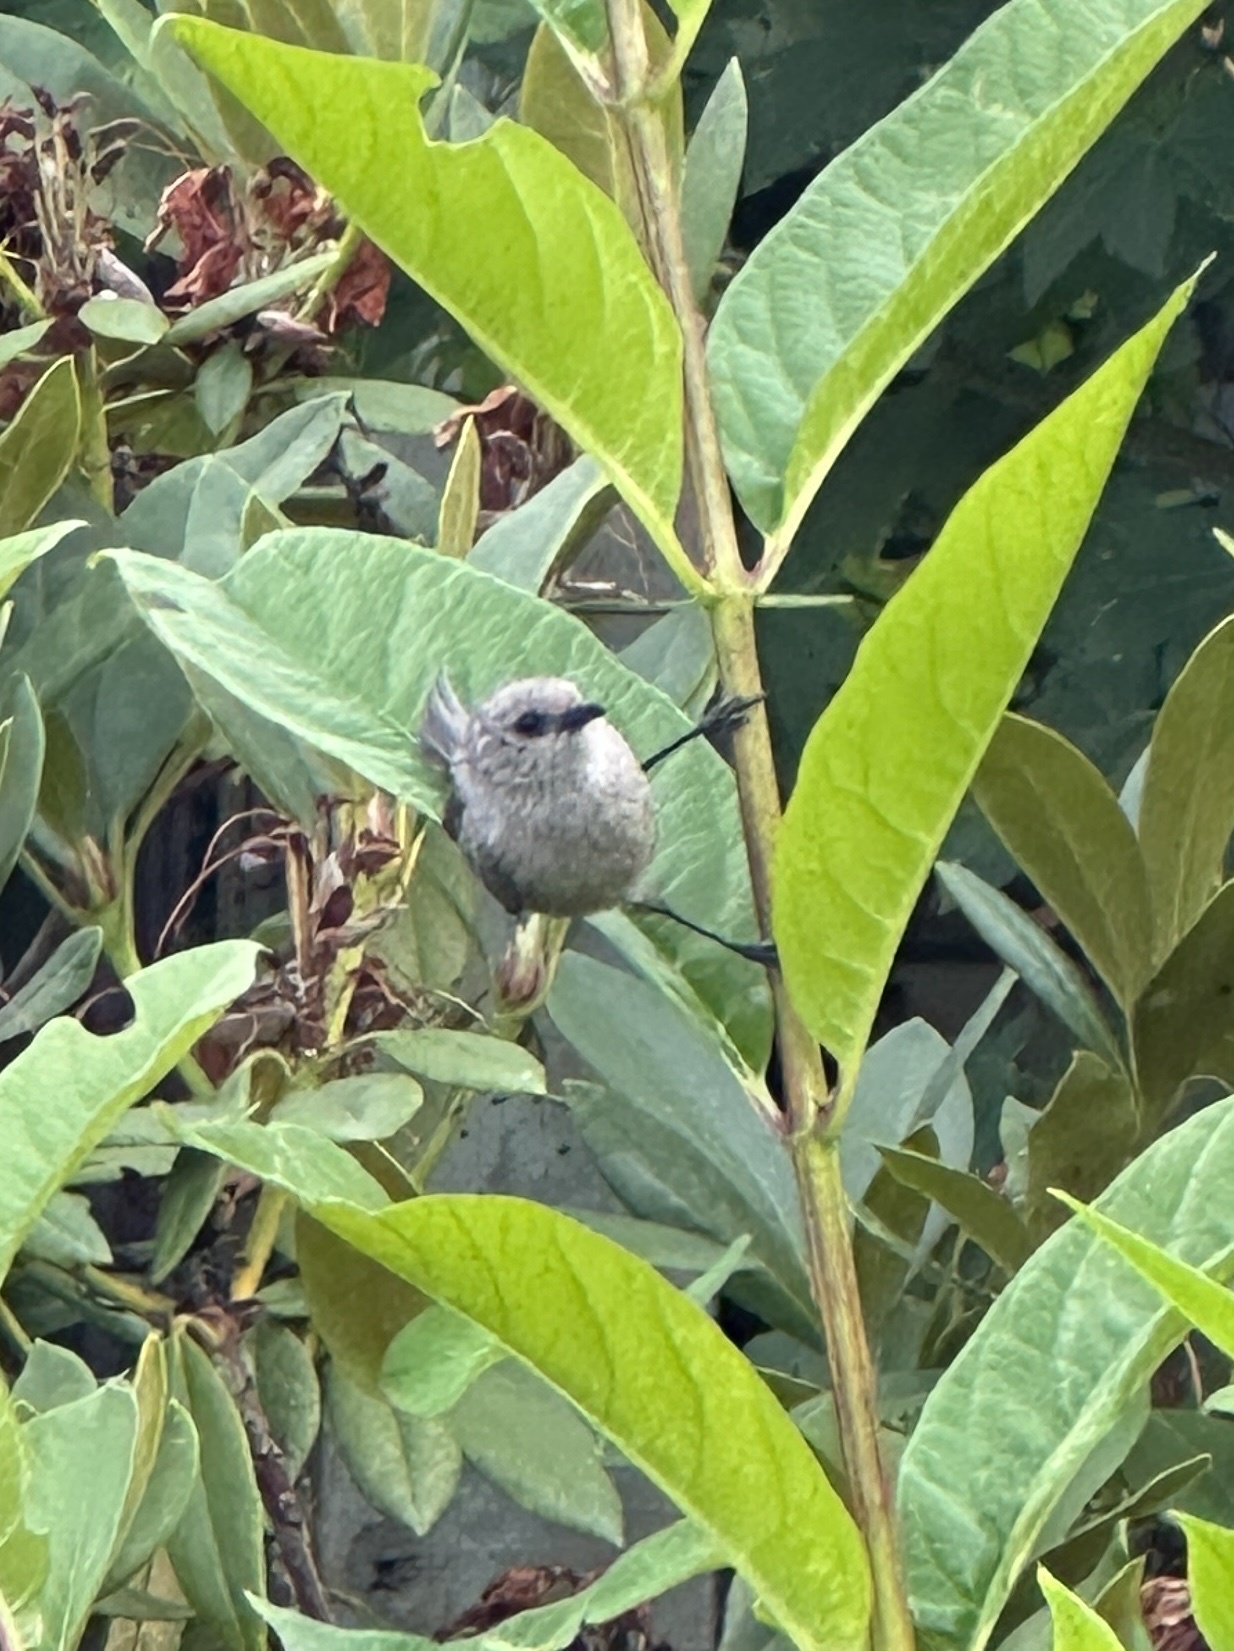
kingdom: Animalia
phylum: Chordata
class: Aves
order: Passeriformes
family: Aegithalidae
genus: Psaltriparus
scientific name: Psaltriparus minimus
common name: American bushtit
